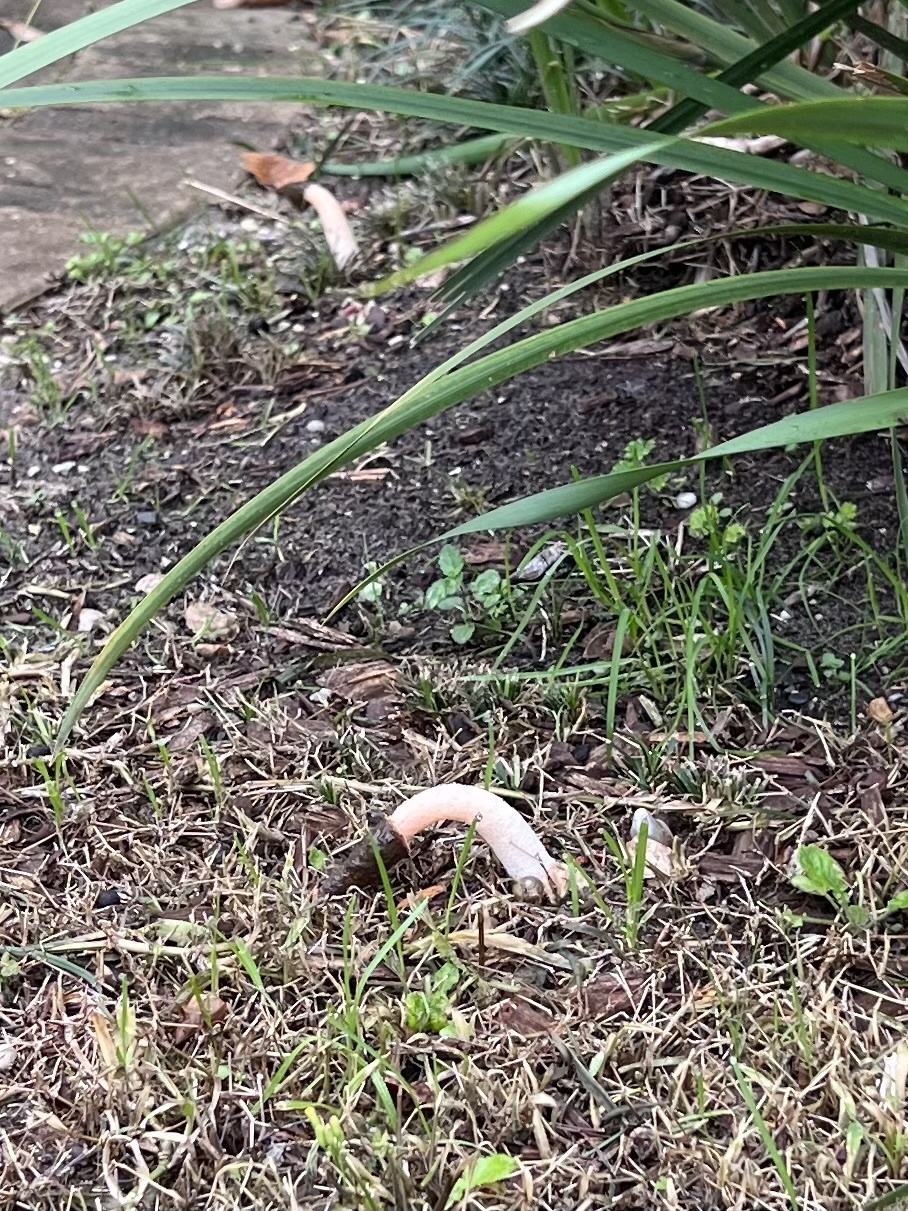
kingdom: Fungi
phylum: Basidiomycota
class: Agaricomycetes
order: Phallales
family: Phallaceae
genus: Phallus
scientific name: Phallus ravenelii
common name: Ravenel's stinkhorn
